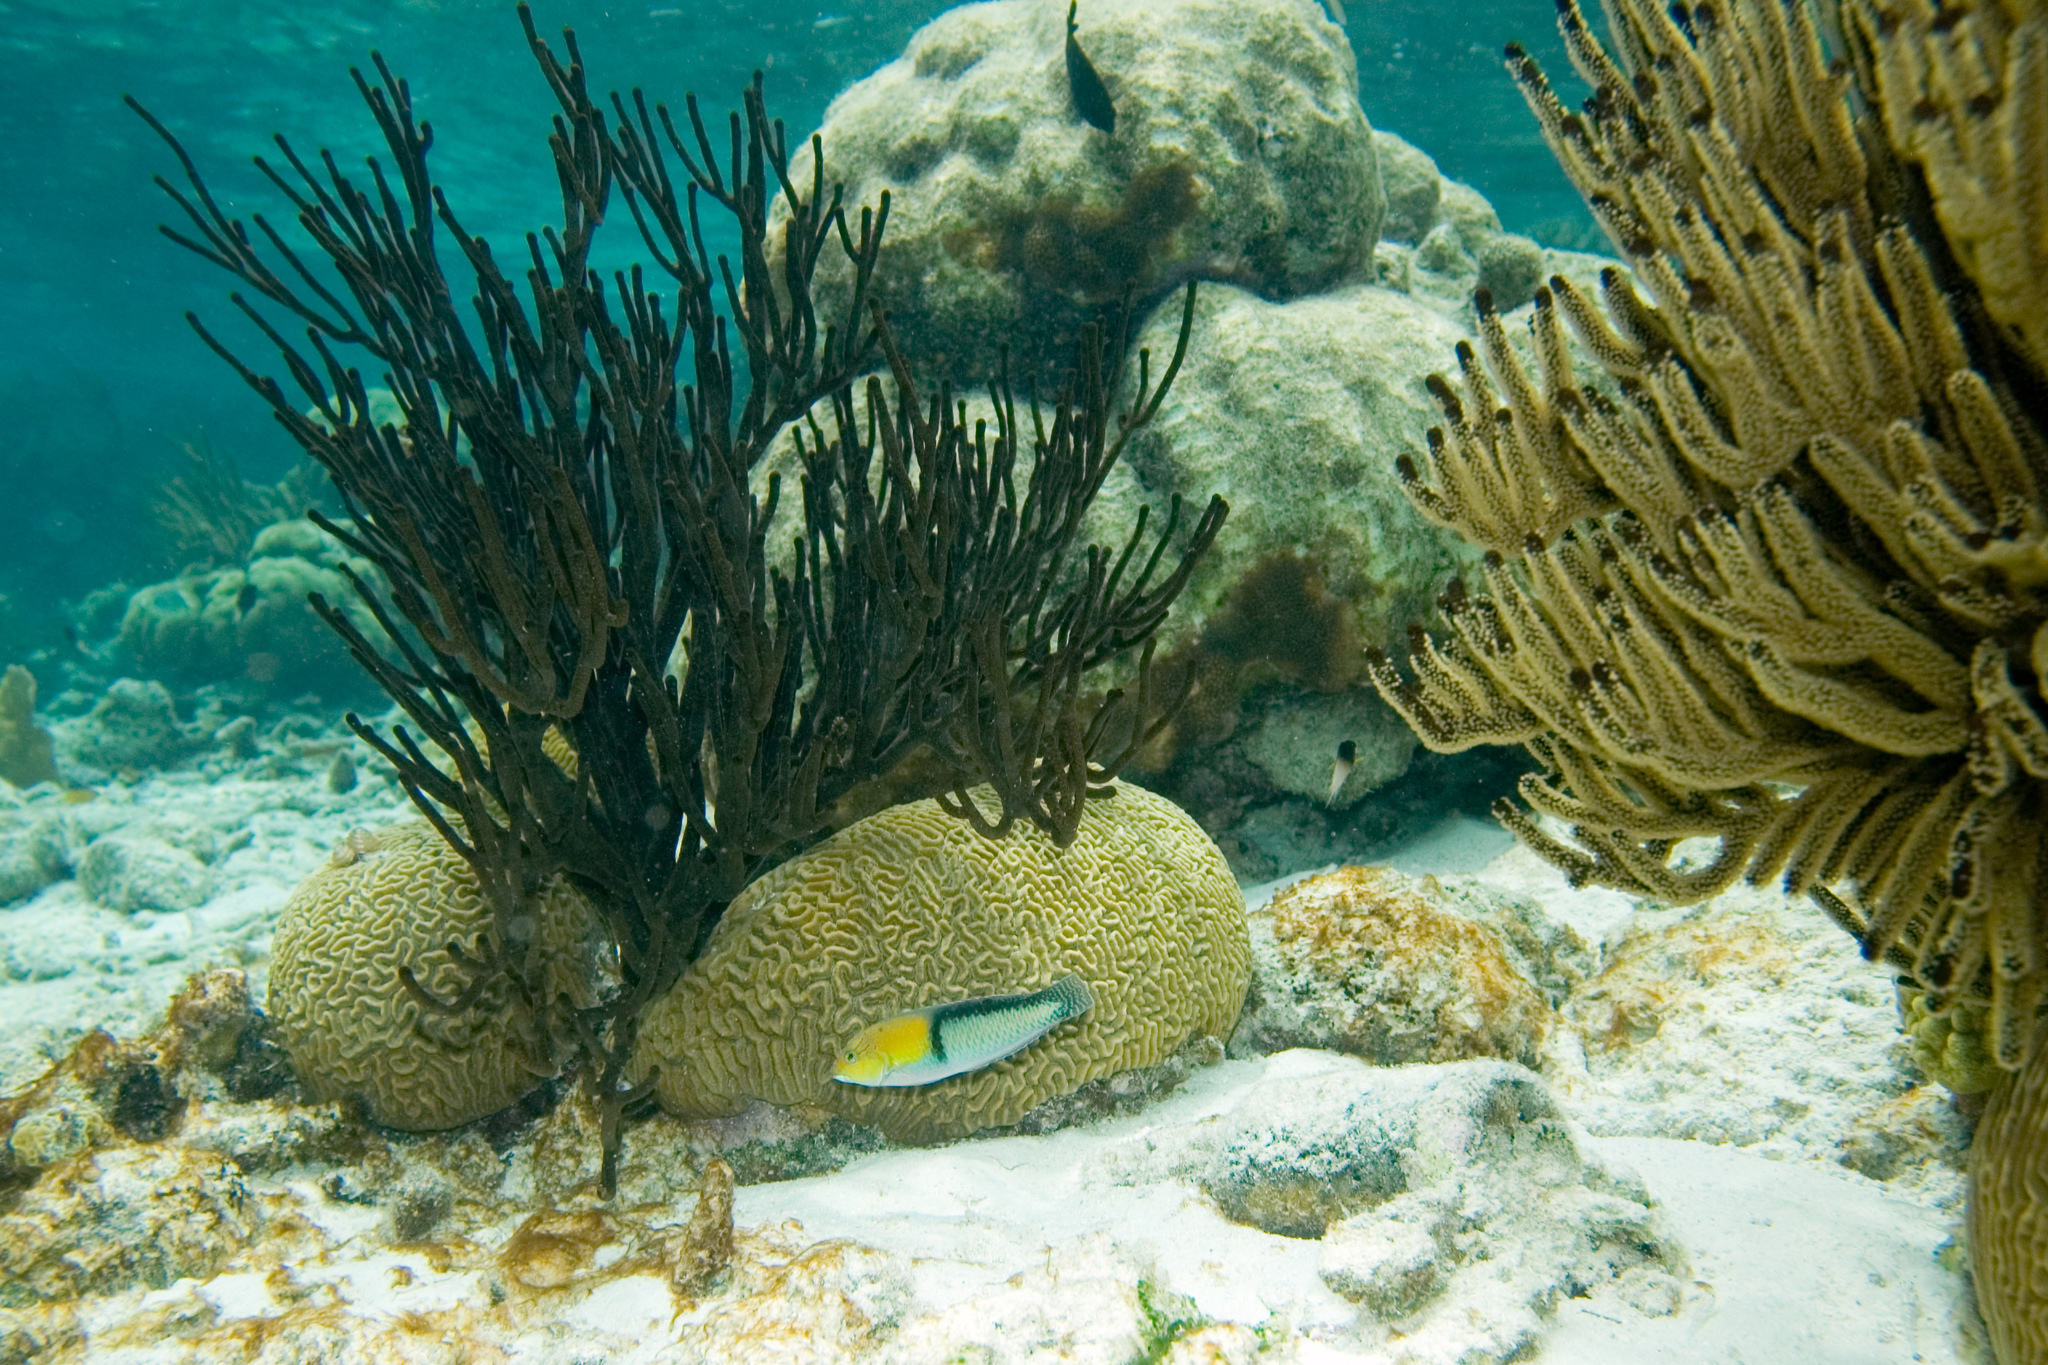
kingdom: Animalia
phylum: Cnidaria
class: Anthozoa
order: Scleractinia
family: Faviidae
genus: Pseudodiploria
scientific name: Pseudodiploria strigosa
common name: Symmetrical brain coral
